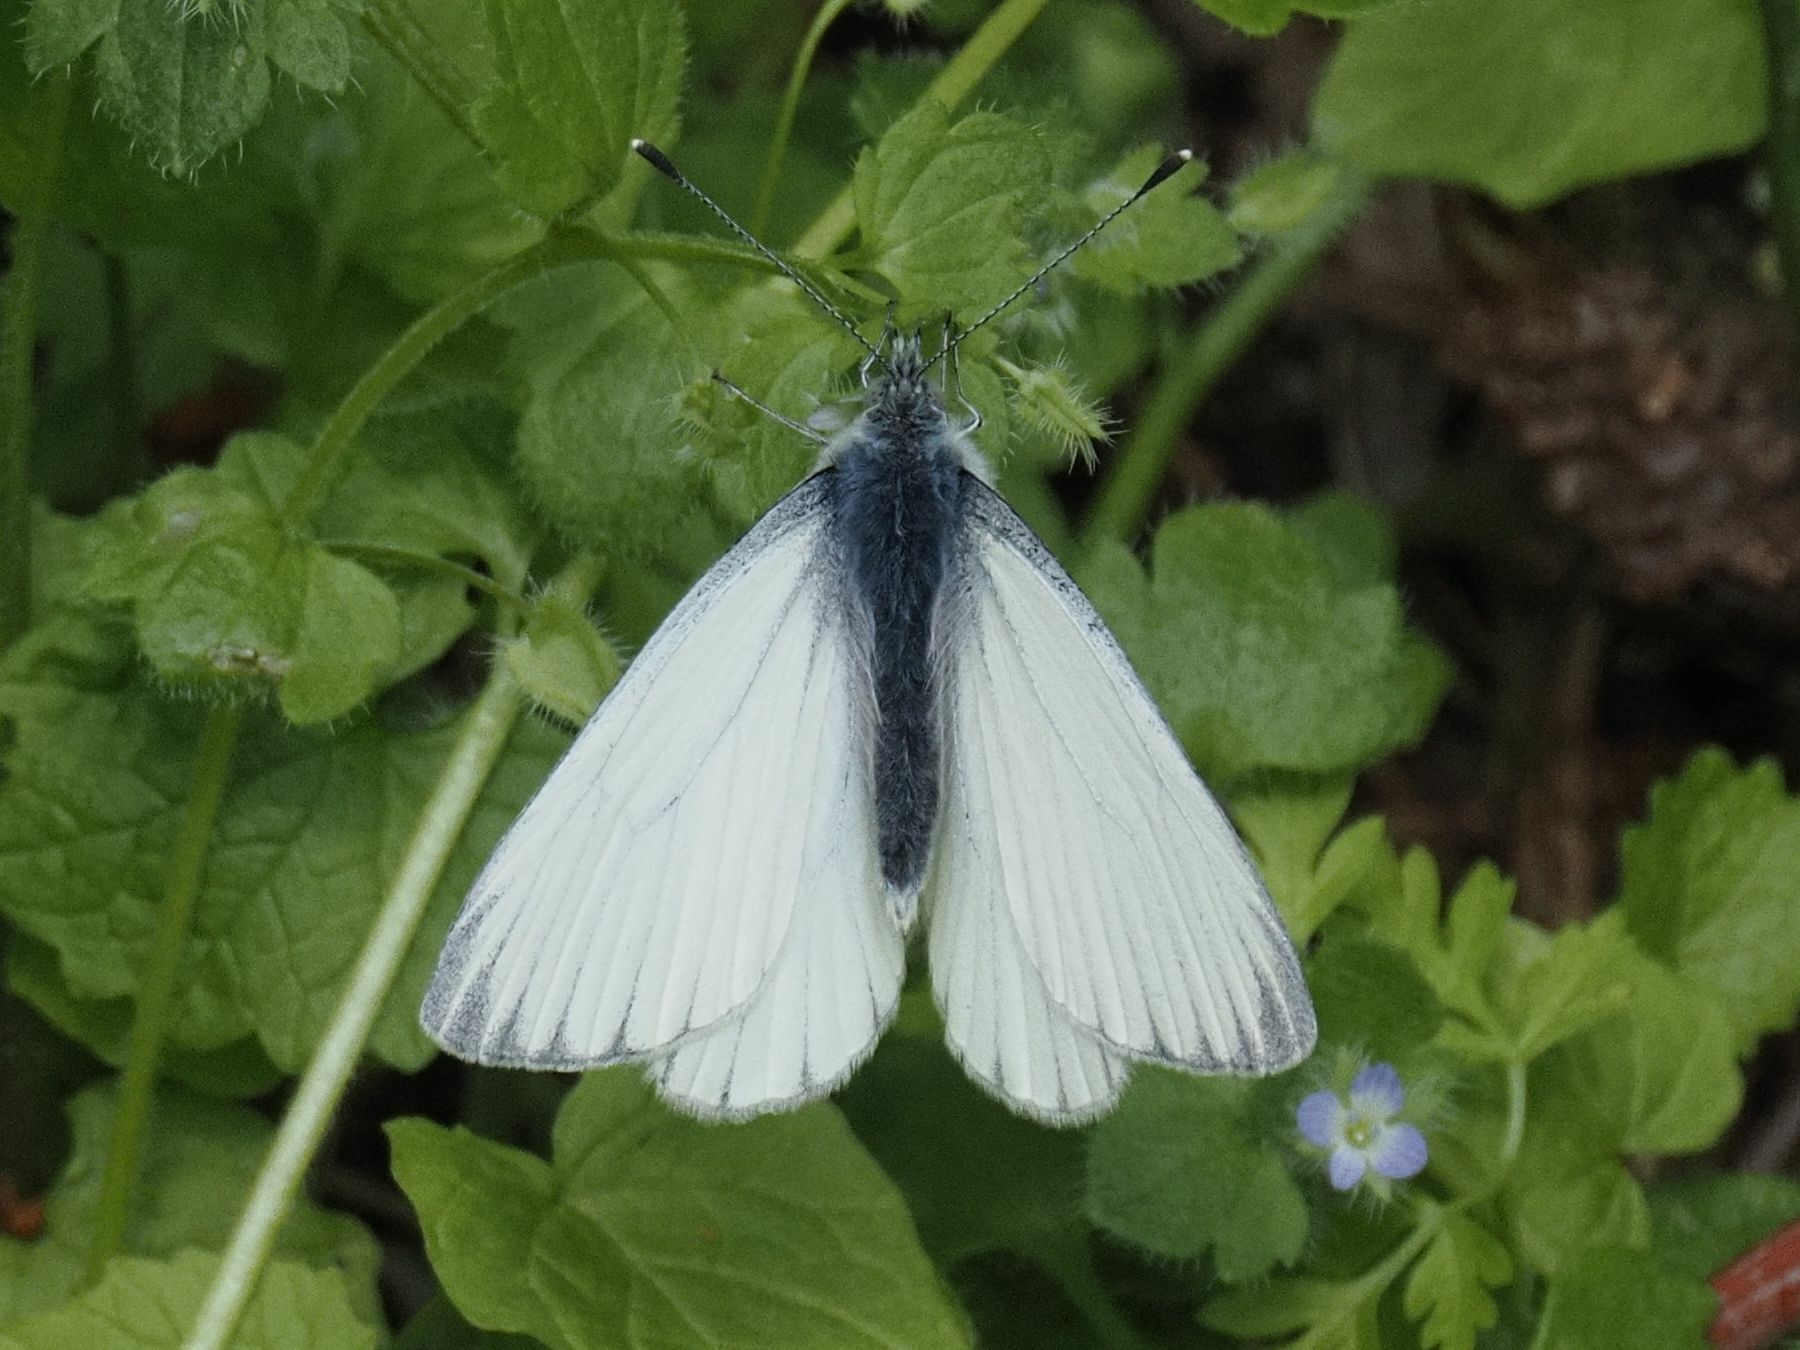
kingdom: Animalia
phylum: Arthropoda
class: Insecta
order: Lepidoptera
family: Pieridae
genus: Pieris
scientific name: Pieris napi
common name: Green-veined white
